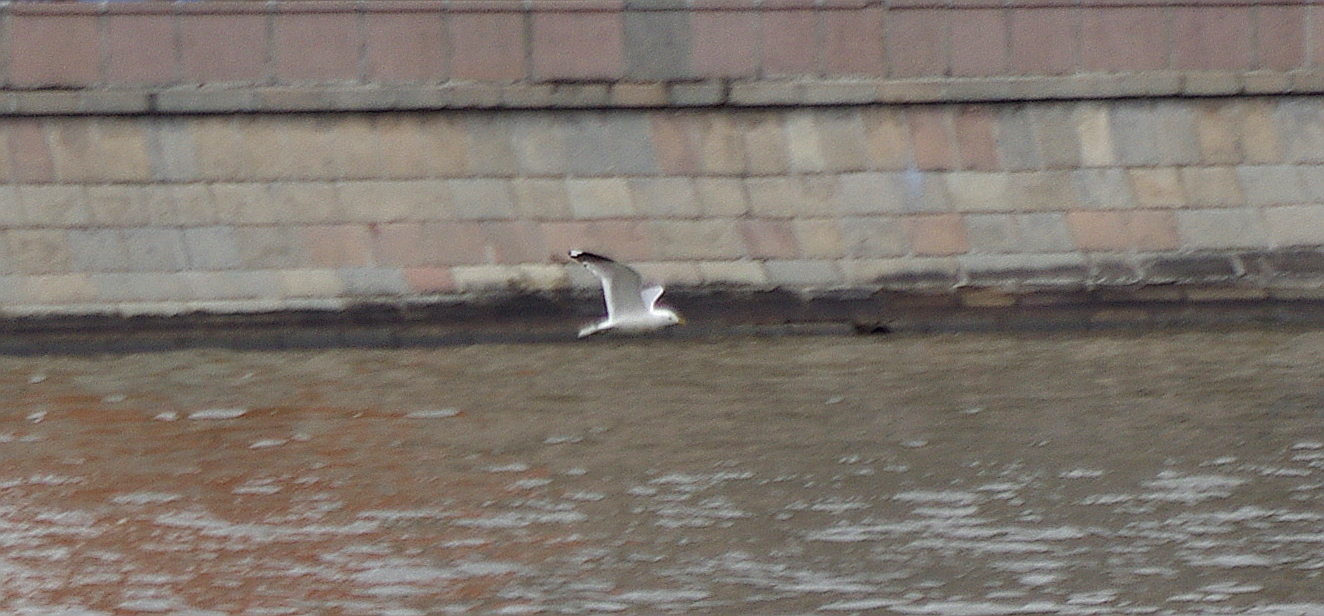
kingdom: Animalia
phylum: Chordata
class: Aves
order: Charadriiformes
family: Laridae
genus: Larus
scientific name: Larus canus
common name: Mew gull
